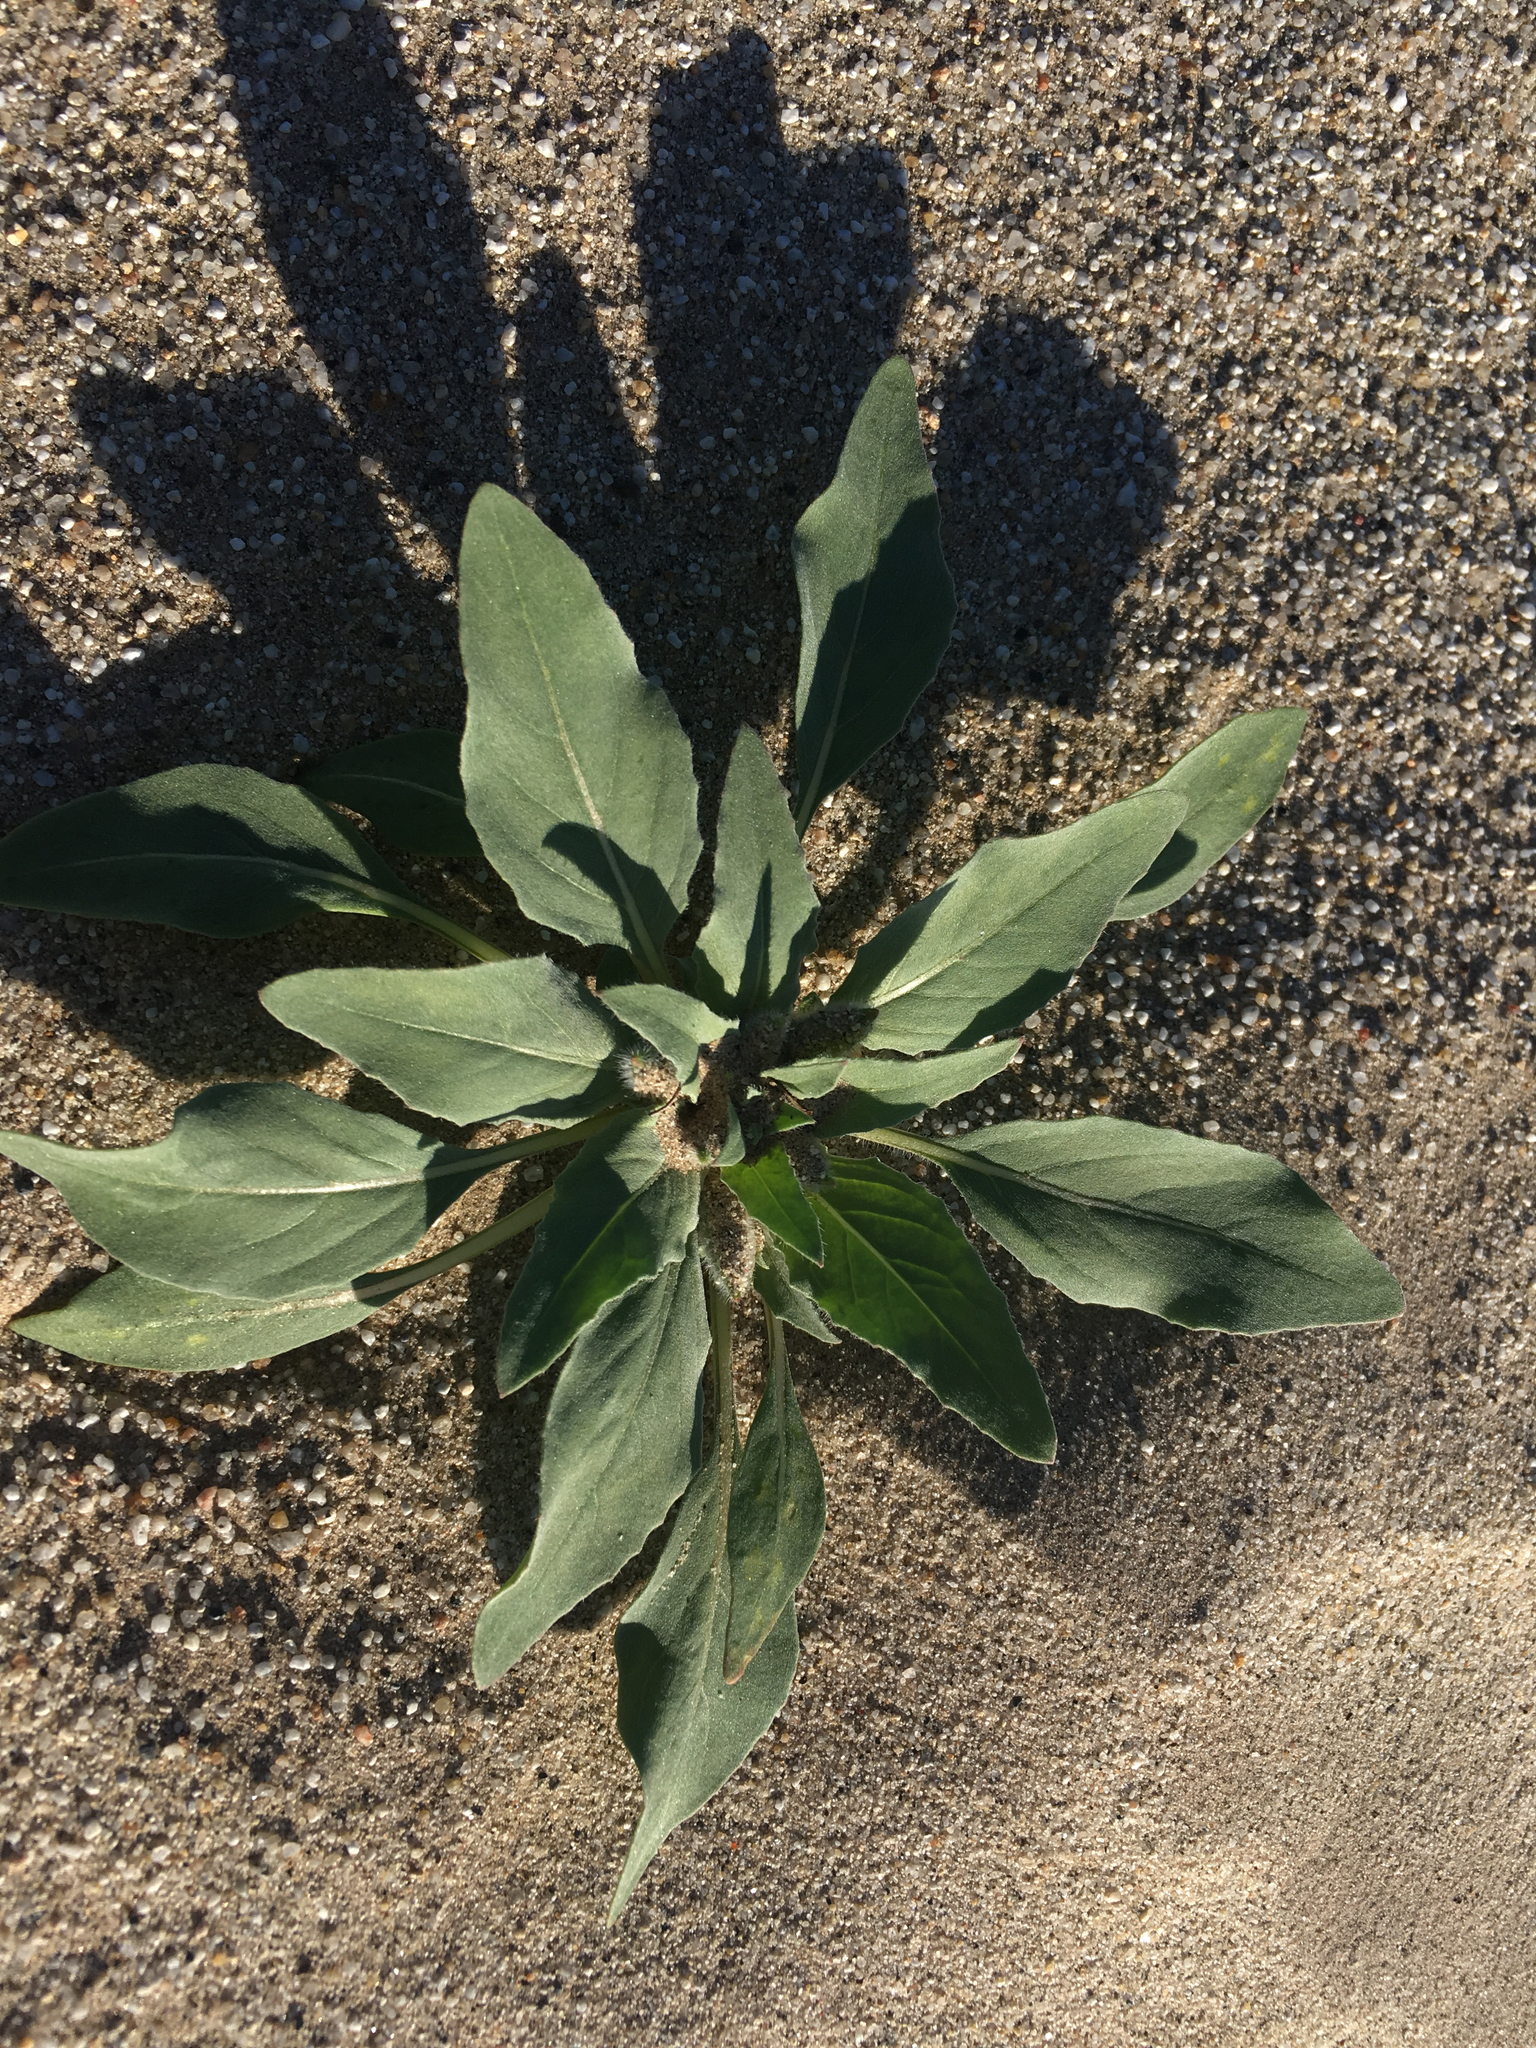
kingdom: Plantae
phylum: Tracheophyta
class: Magnoliopsida
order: Myrtales
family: Onagraceae
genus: Oenothera
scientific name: Oenothera deltoides
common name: Basket evening-primrose
